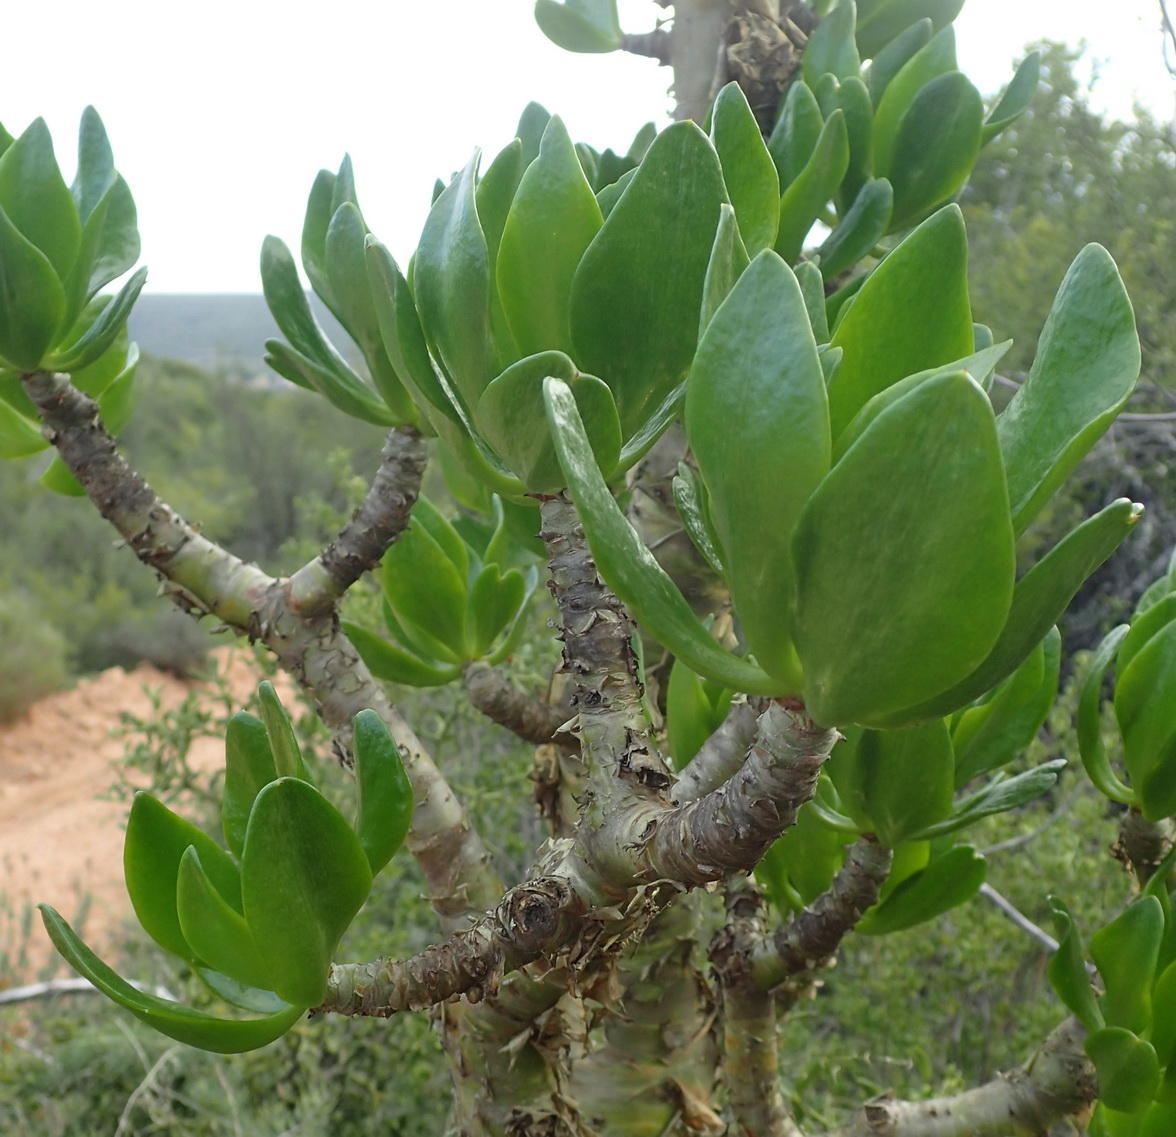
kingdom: Plantae
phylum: Tracheophyta
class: Magnoliopsida
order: Saxifragales
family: Crassulaceae
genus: Tylecodon
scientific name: Tylecodon paniculatus
